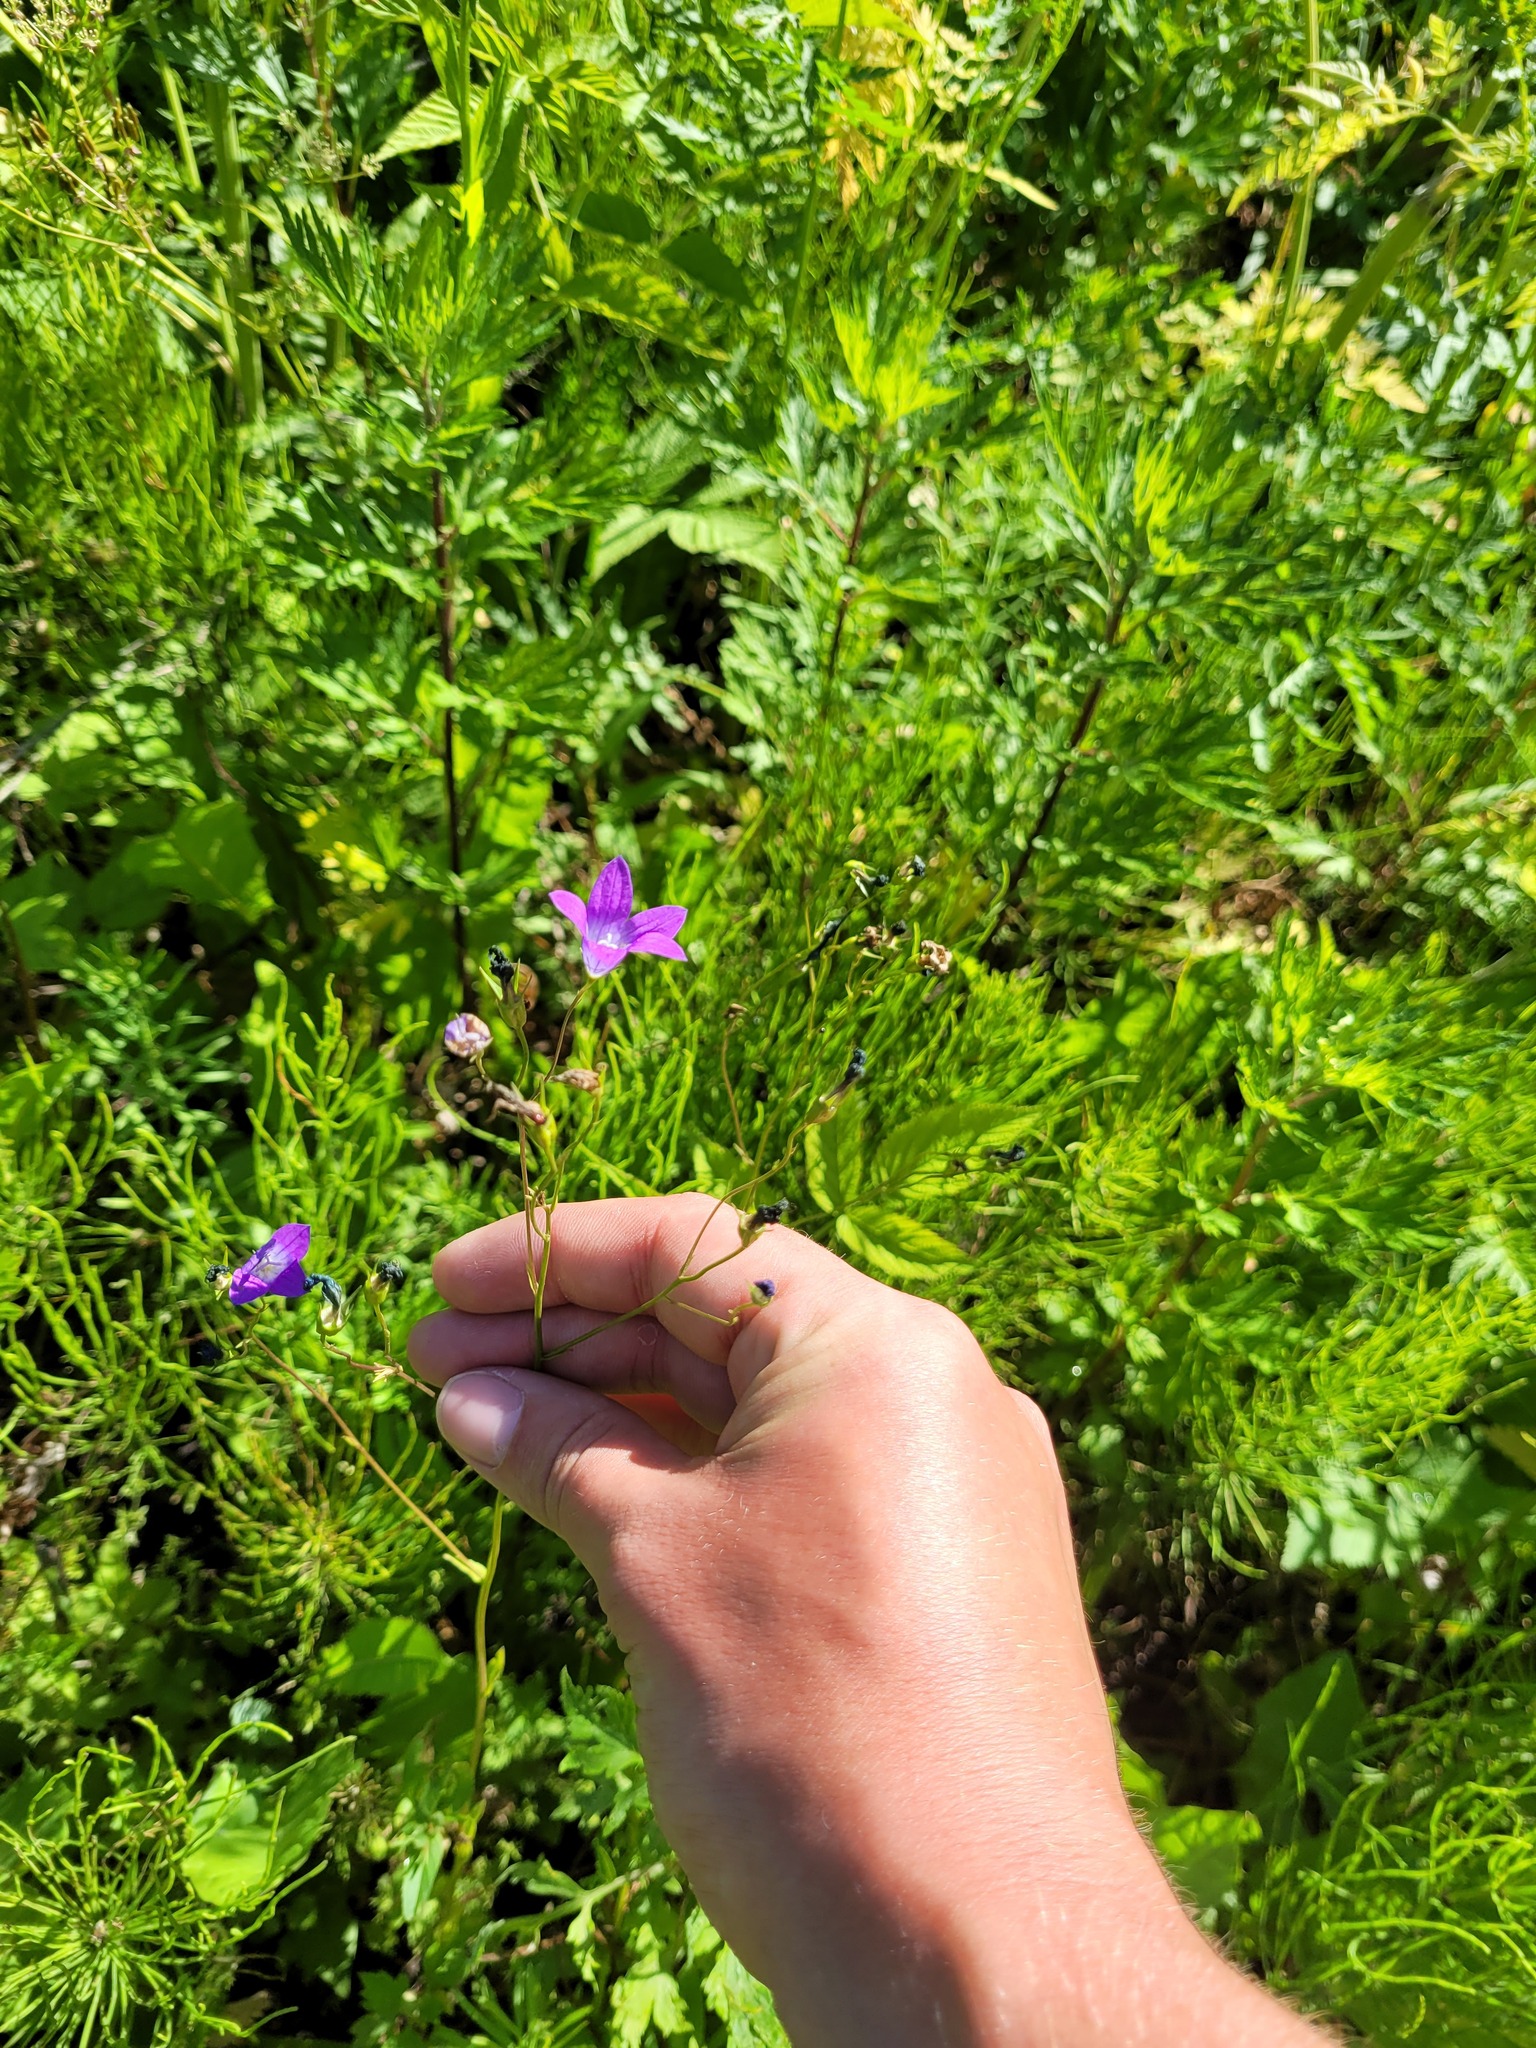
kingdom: Plantae
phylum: Tracheophyta
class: Magnoliopsida
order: Asterales
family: Campanulaceae
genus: Campanula
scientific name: Campanula patula
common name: Spreading bellflower
